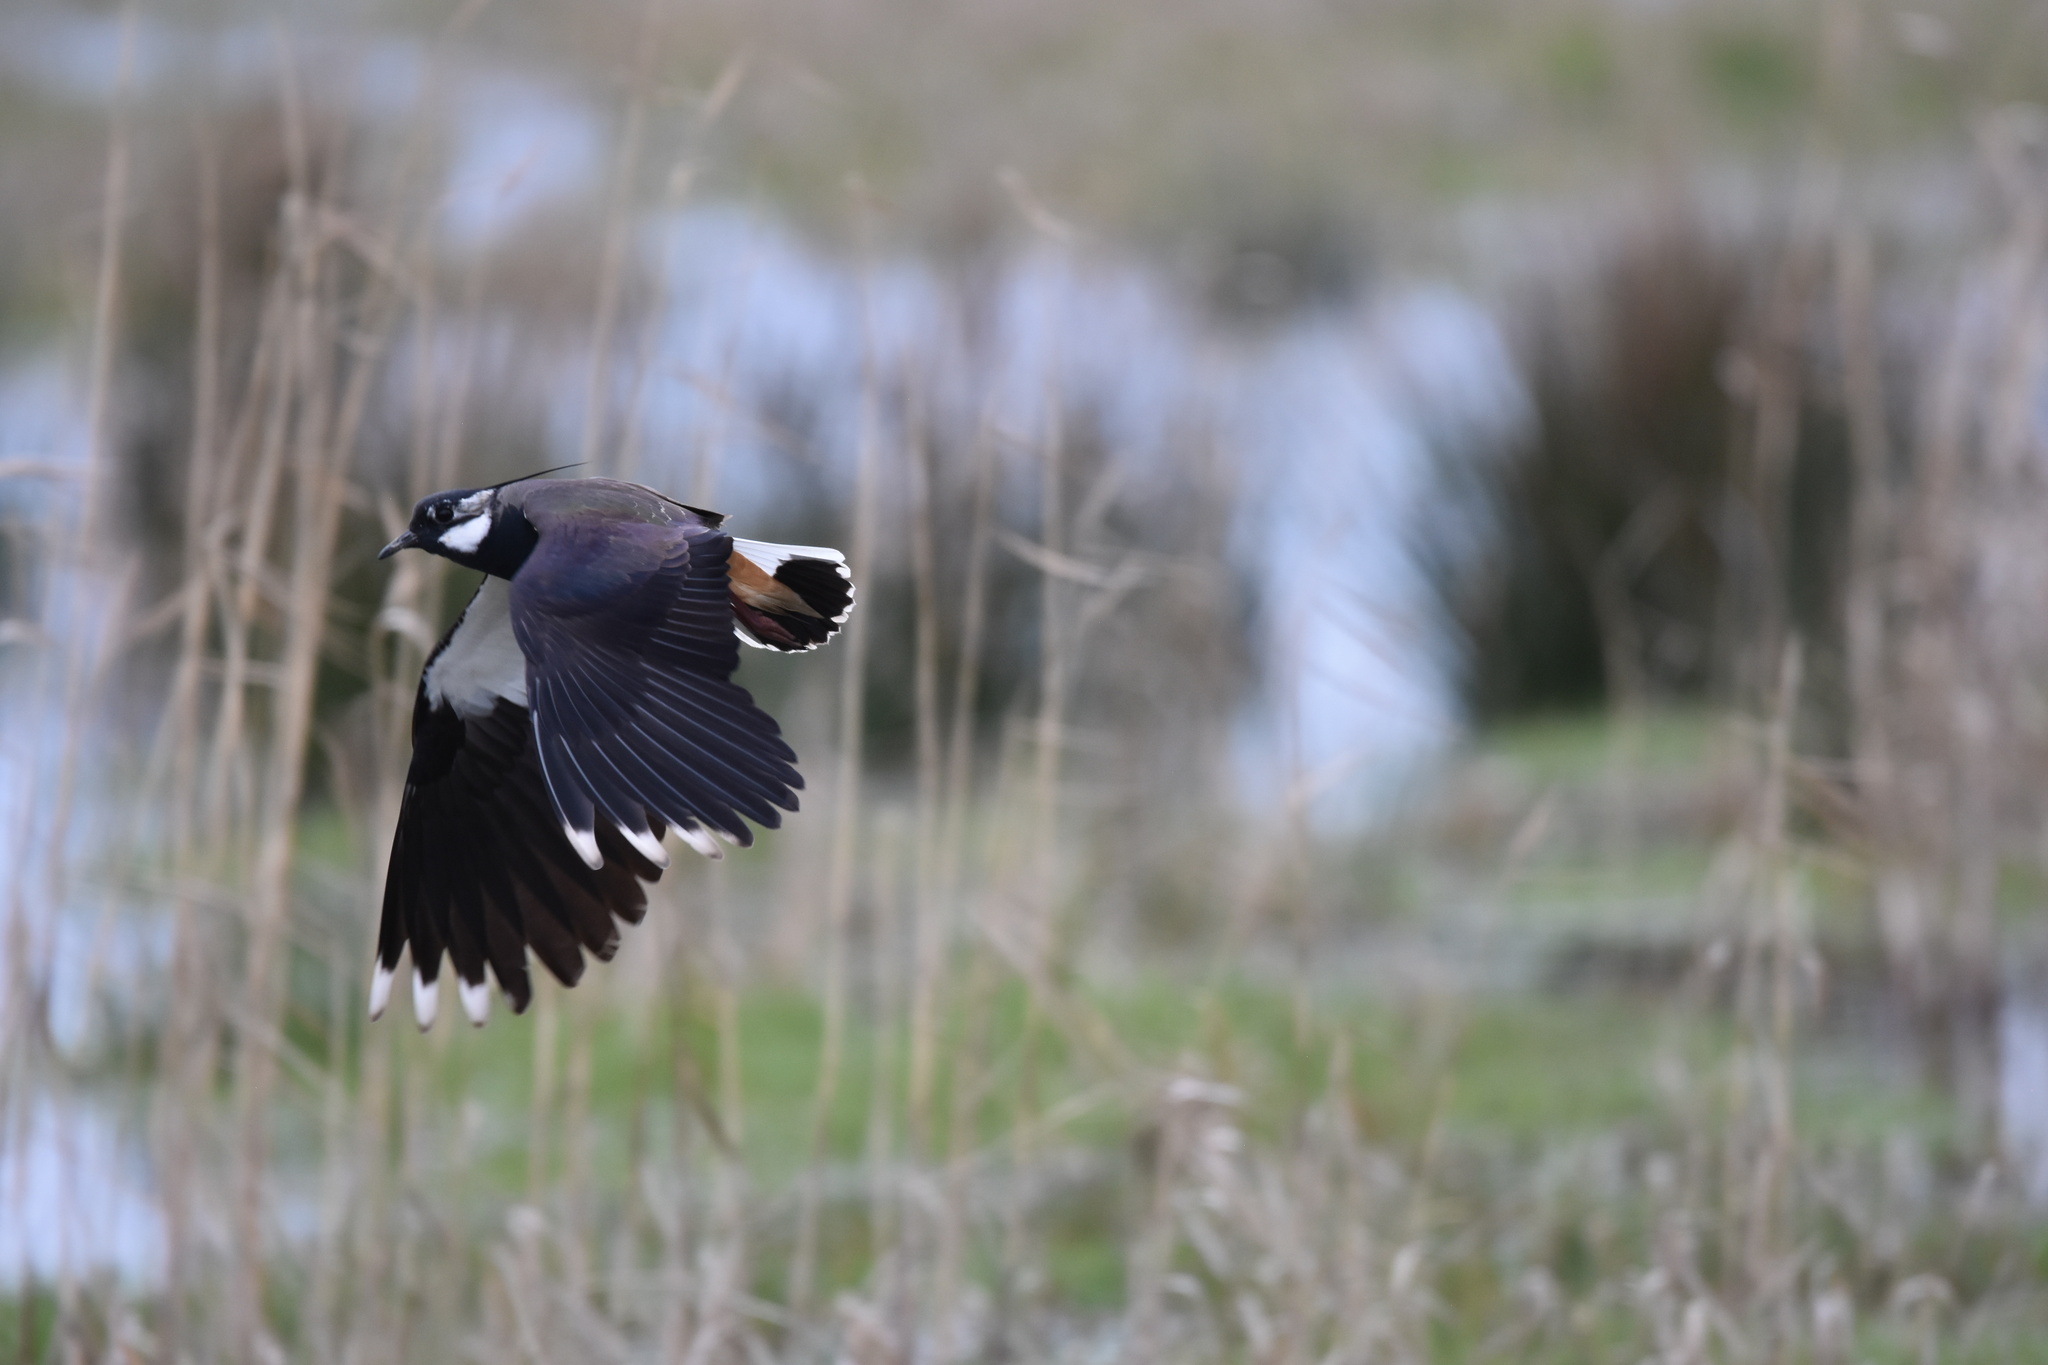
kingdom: Animalia
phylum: Chordata
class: Aves
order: Charadriiformes
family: Charadriidae
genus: Vanellus
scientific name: Vanellus vanellus
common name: Northern lapwing
